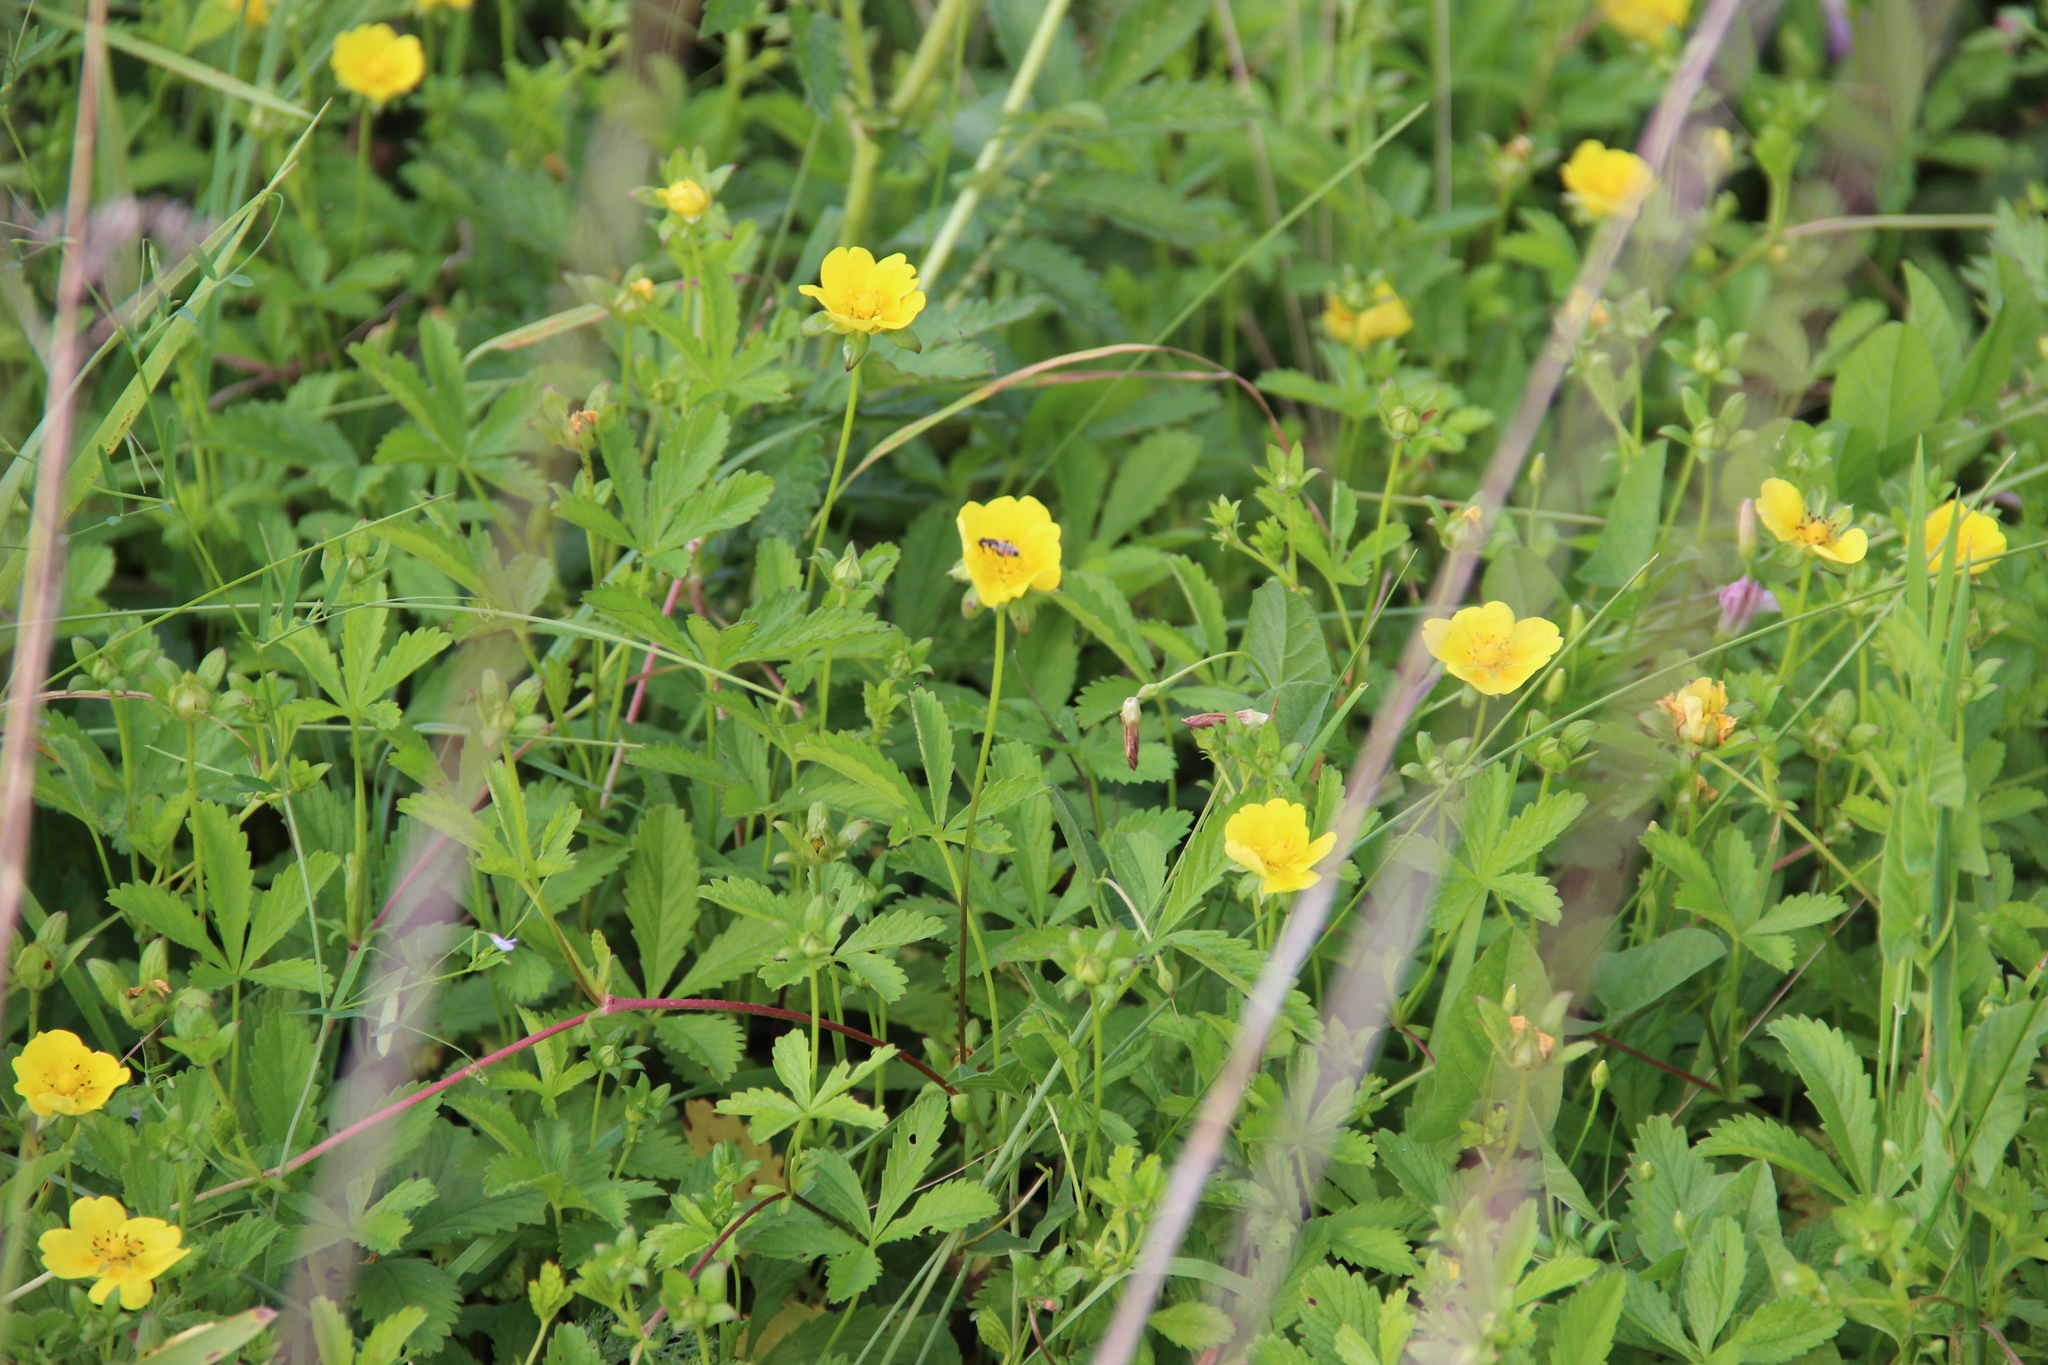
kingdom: Plantae
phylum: Tracheophyta
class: Magnoliopsida
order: Rosales
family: Rosaceae
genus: Potentilla
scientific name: Potentilla reptans
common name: Creeping cinquefoil
